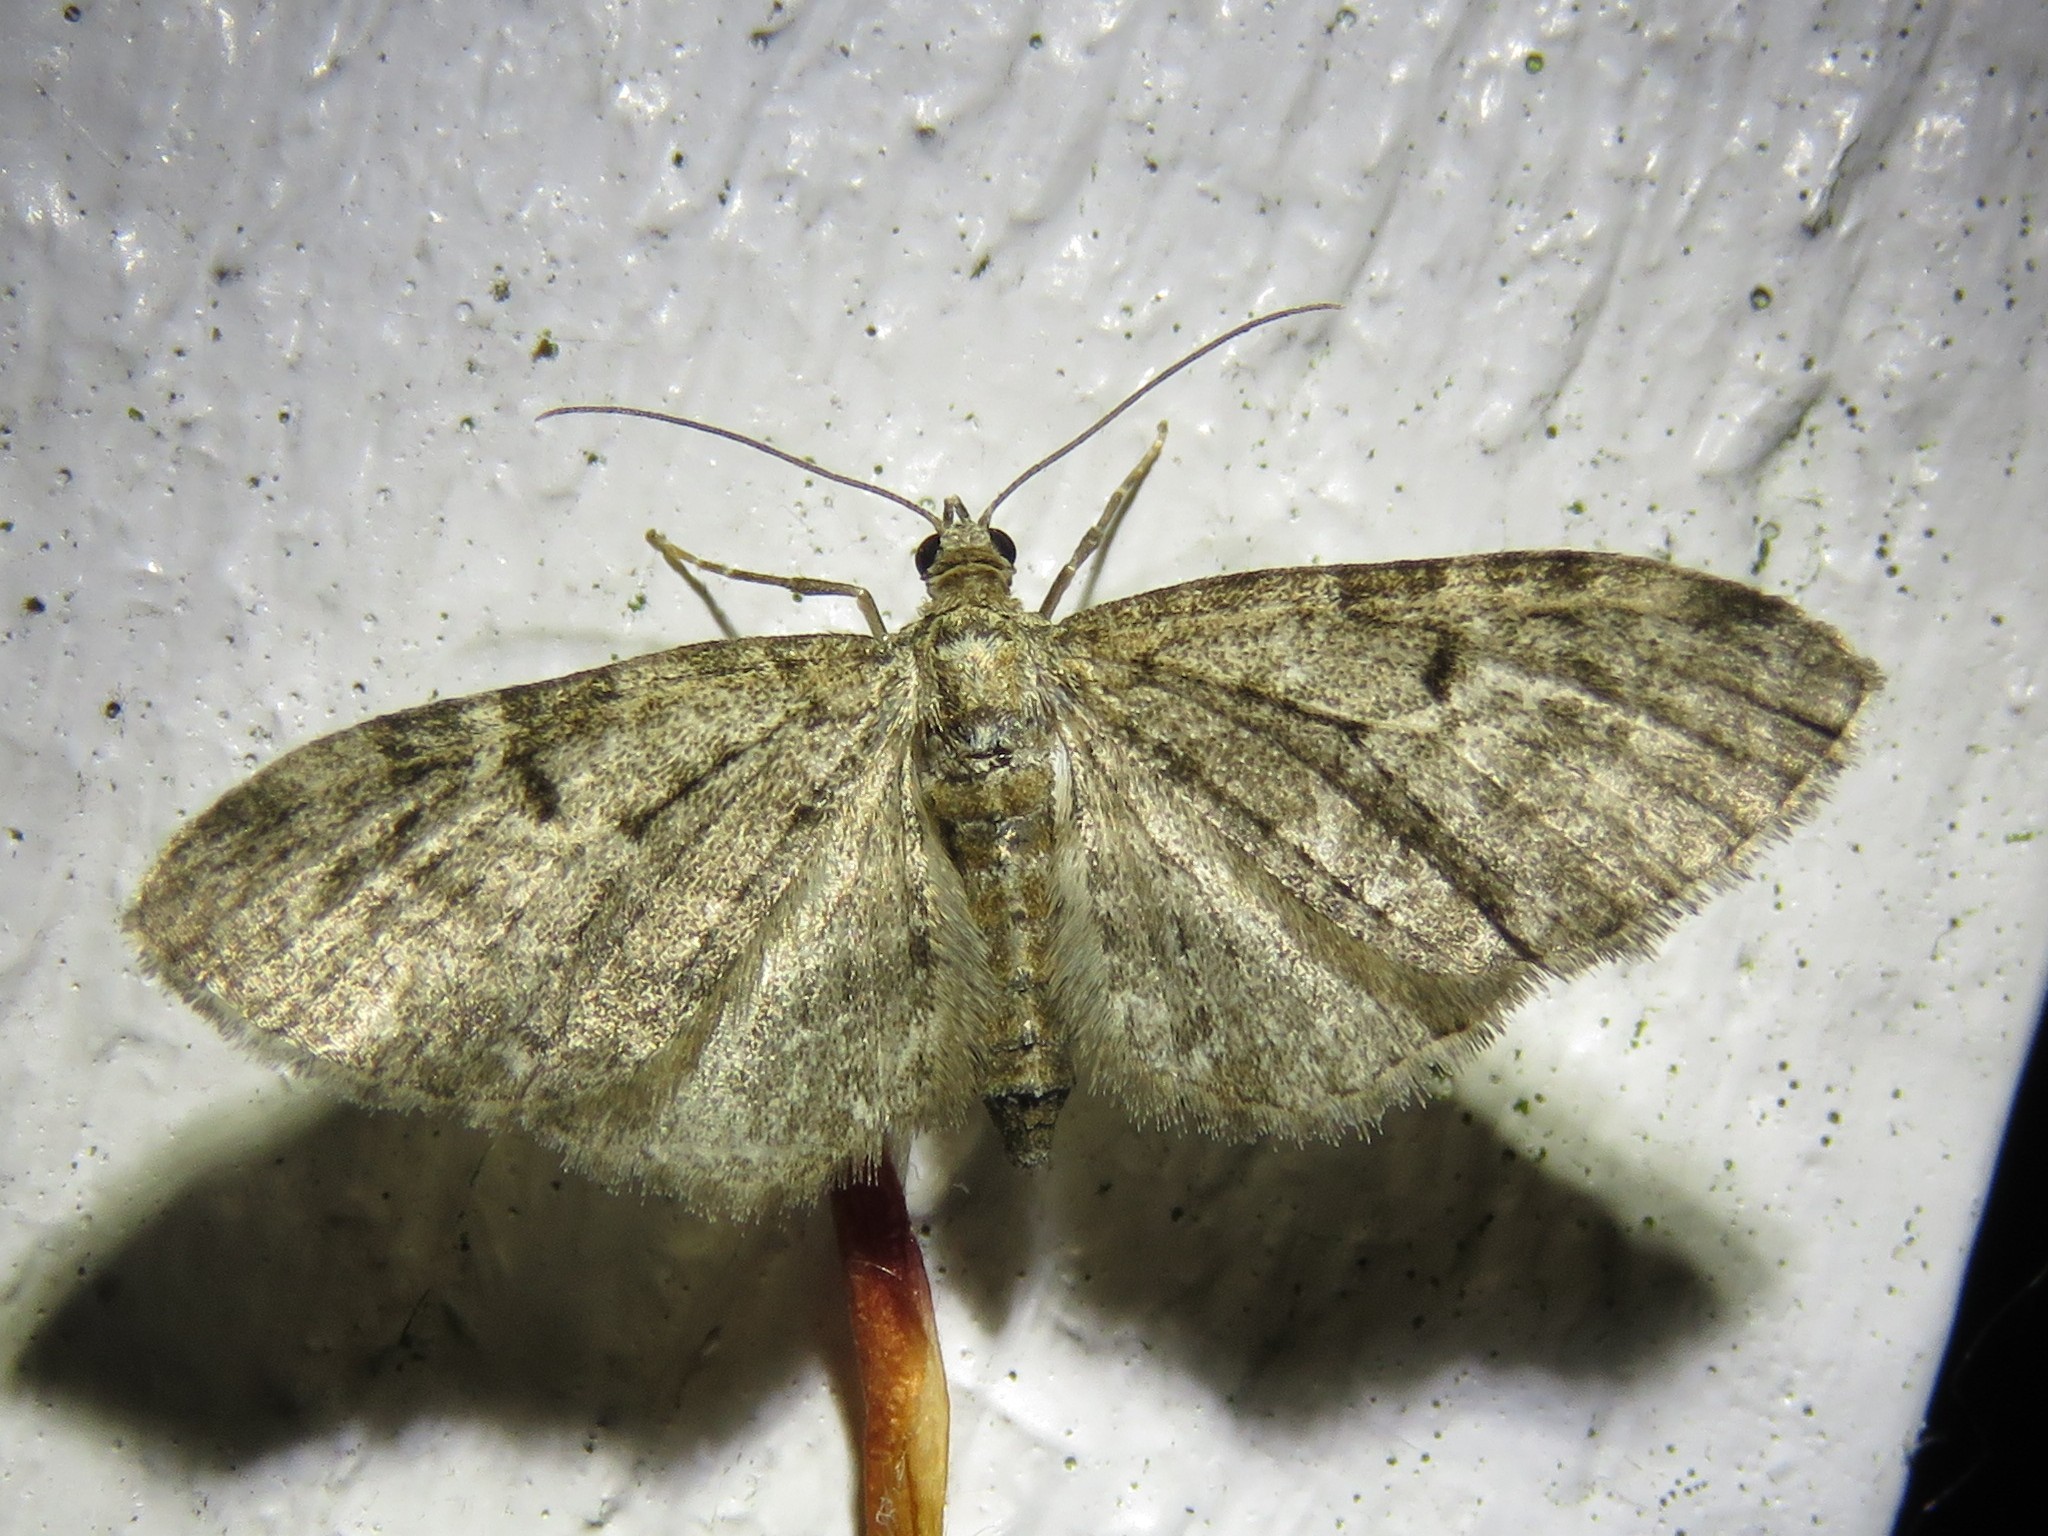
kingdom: Animalia
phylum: Arthropoda
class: Insecta
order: Lepidoptera
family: Geometridae
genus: Eupithecia
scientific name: Eupithecia subfuscata
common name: Grey pug
